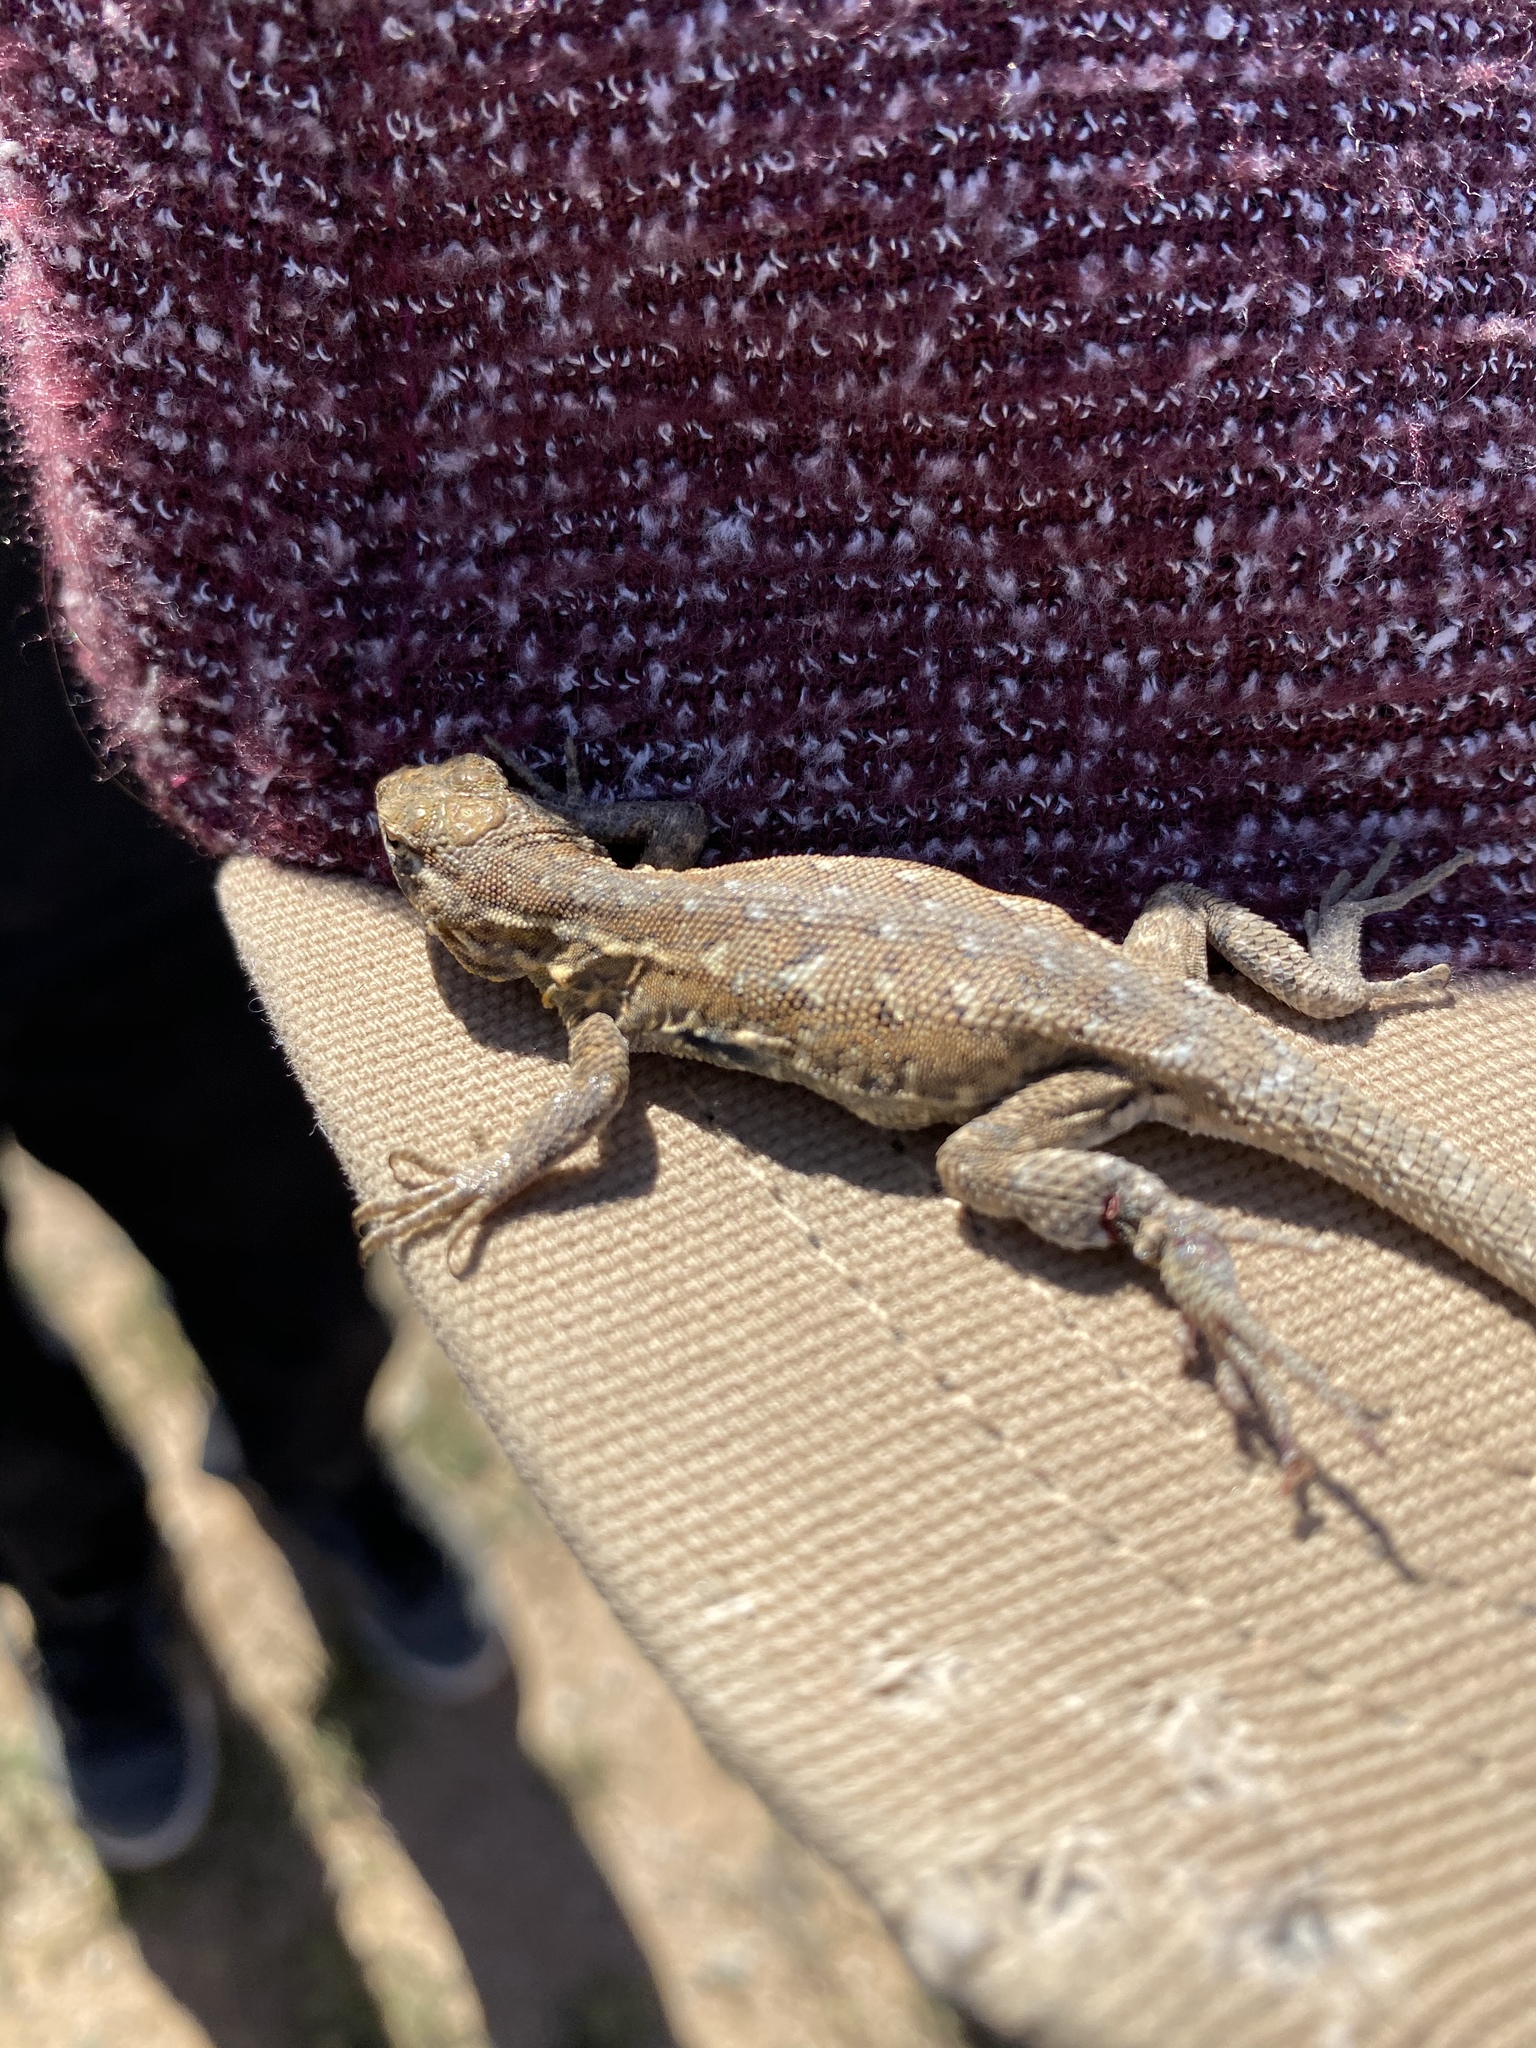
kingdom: Animalia
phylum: Chordata
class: Squamata
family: Phrynosomatidae
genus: Uta
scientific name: Uta stansburiana
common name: Side-blotched lizard
